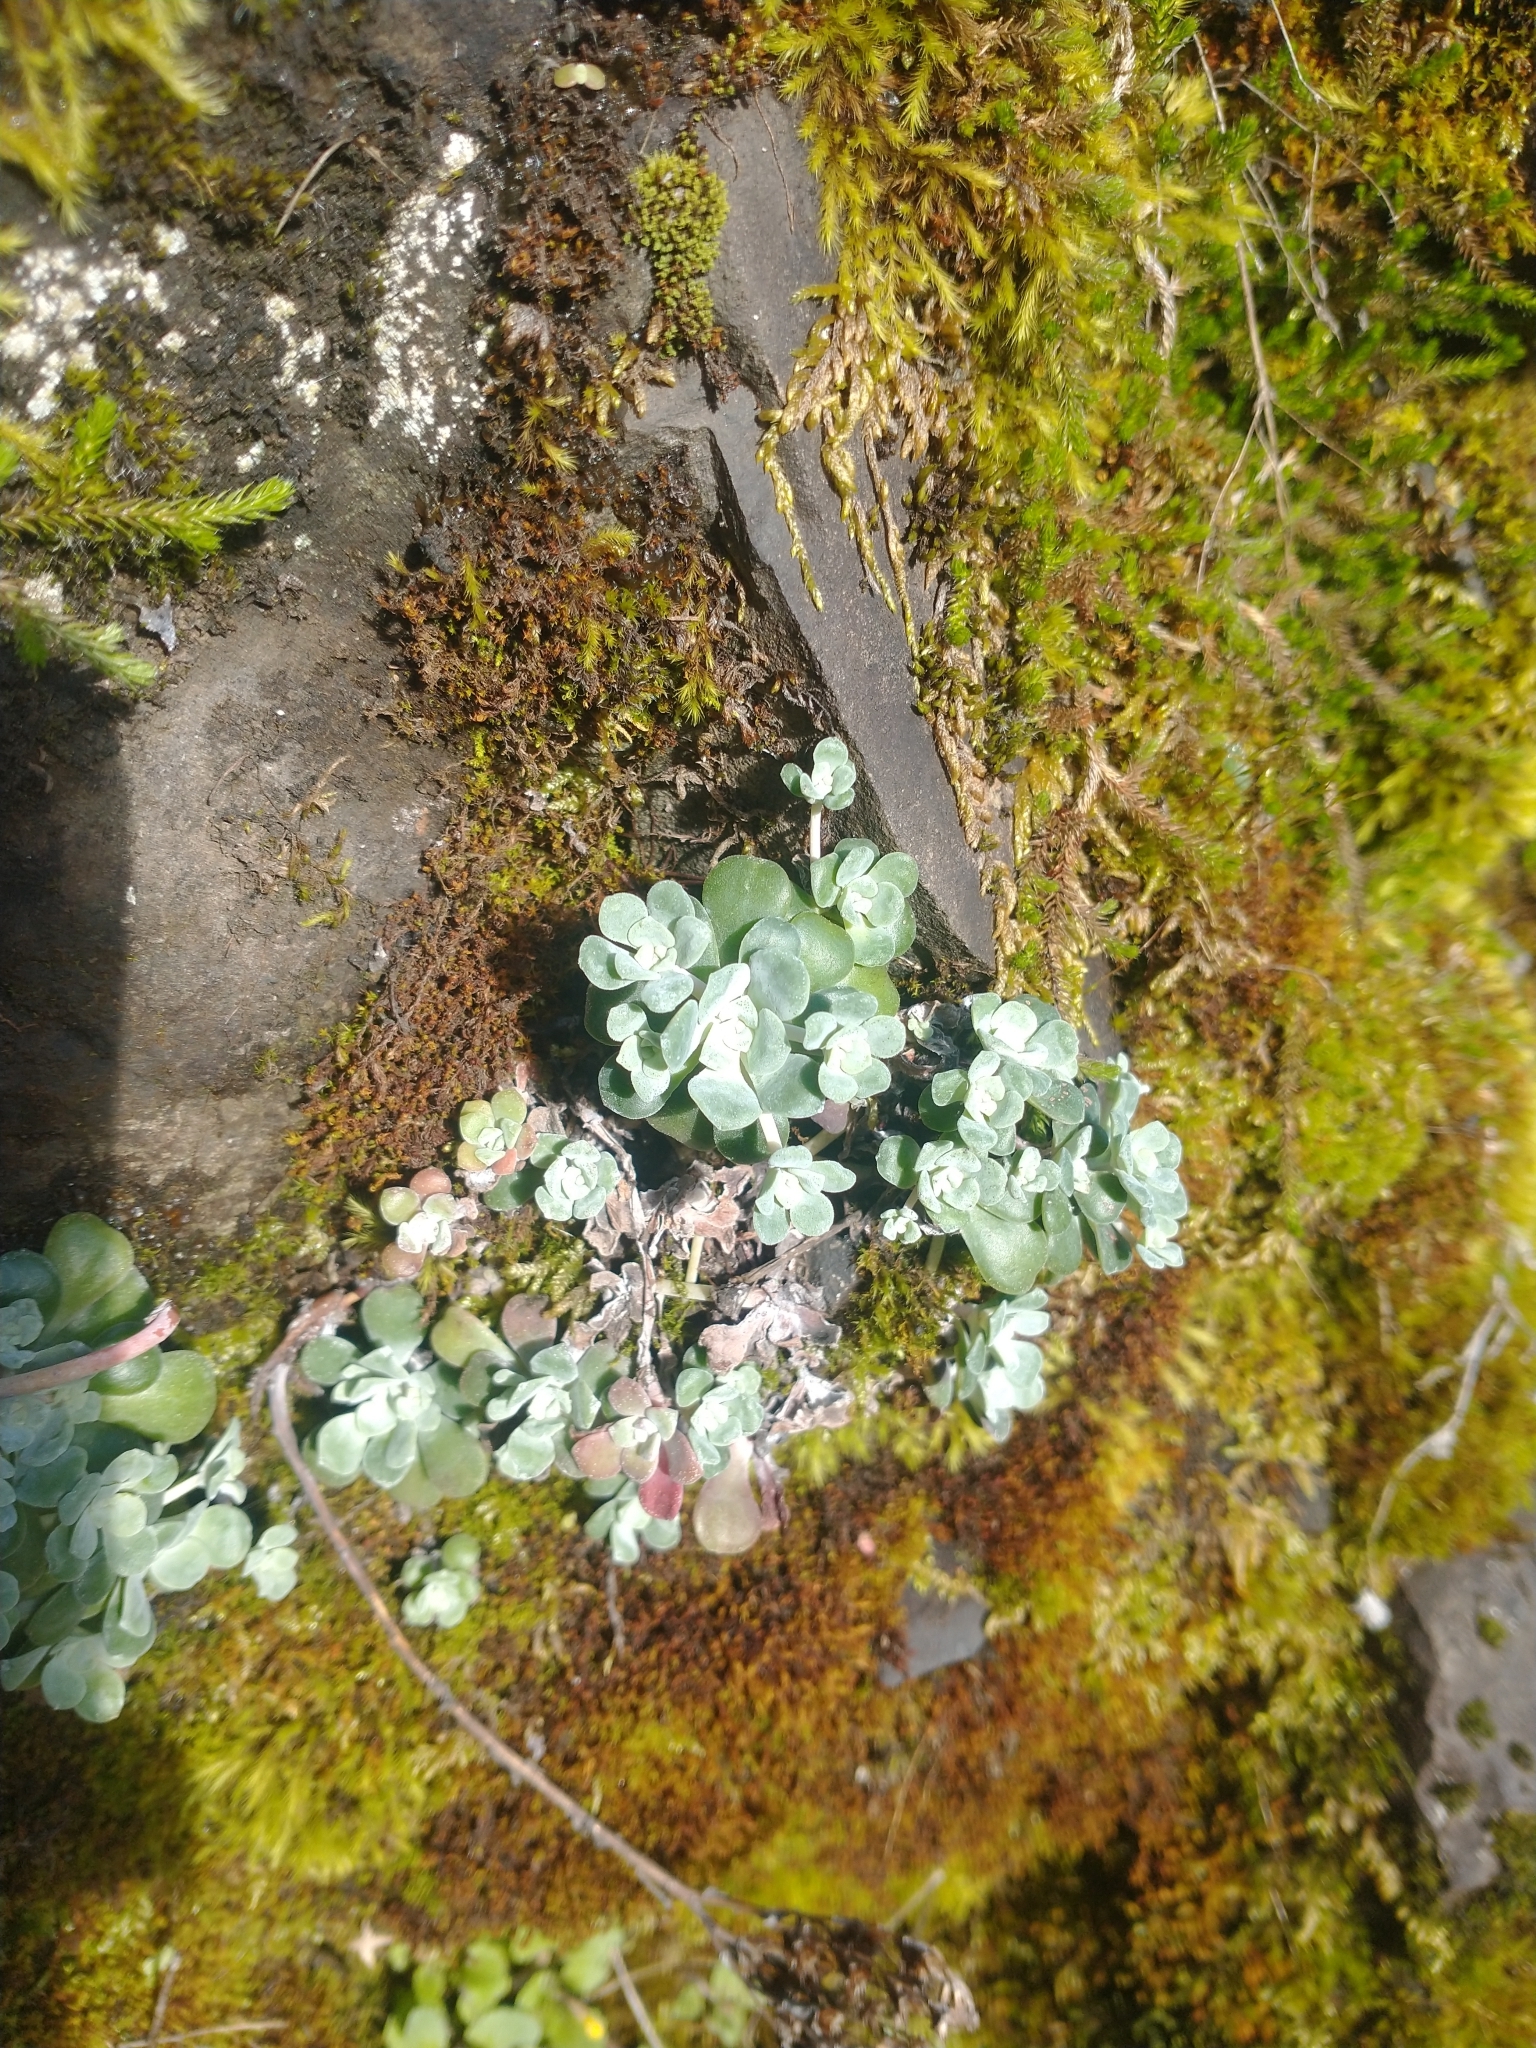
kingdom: Plantae
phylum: Tracheophyta
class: Magnoliopsida
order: Saxifragales
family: Crassulaceae
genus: Sedum
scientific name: Sedum spathulifolium
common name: Colorado stonecrop
